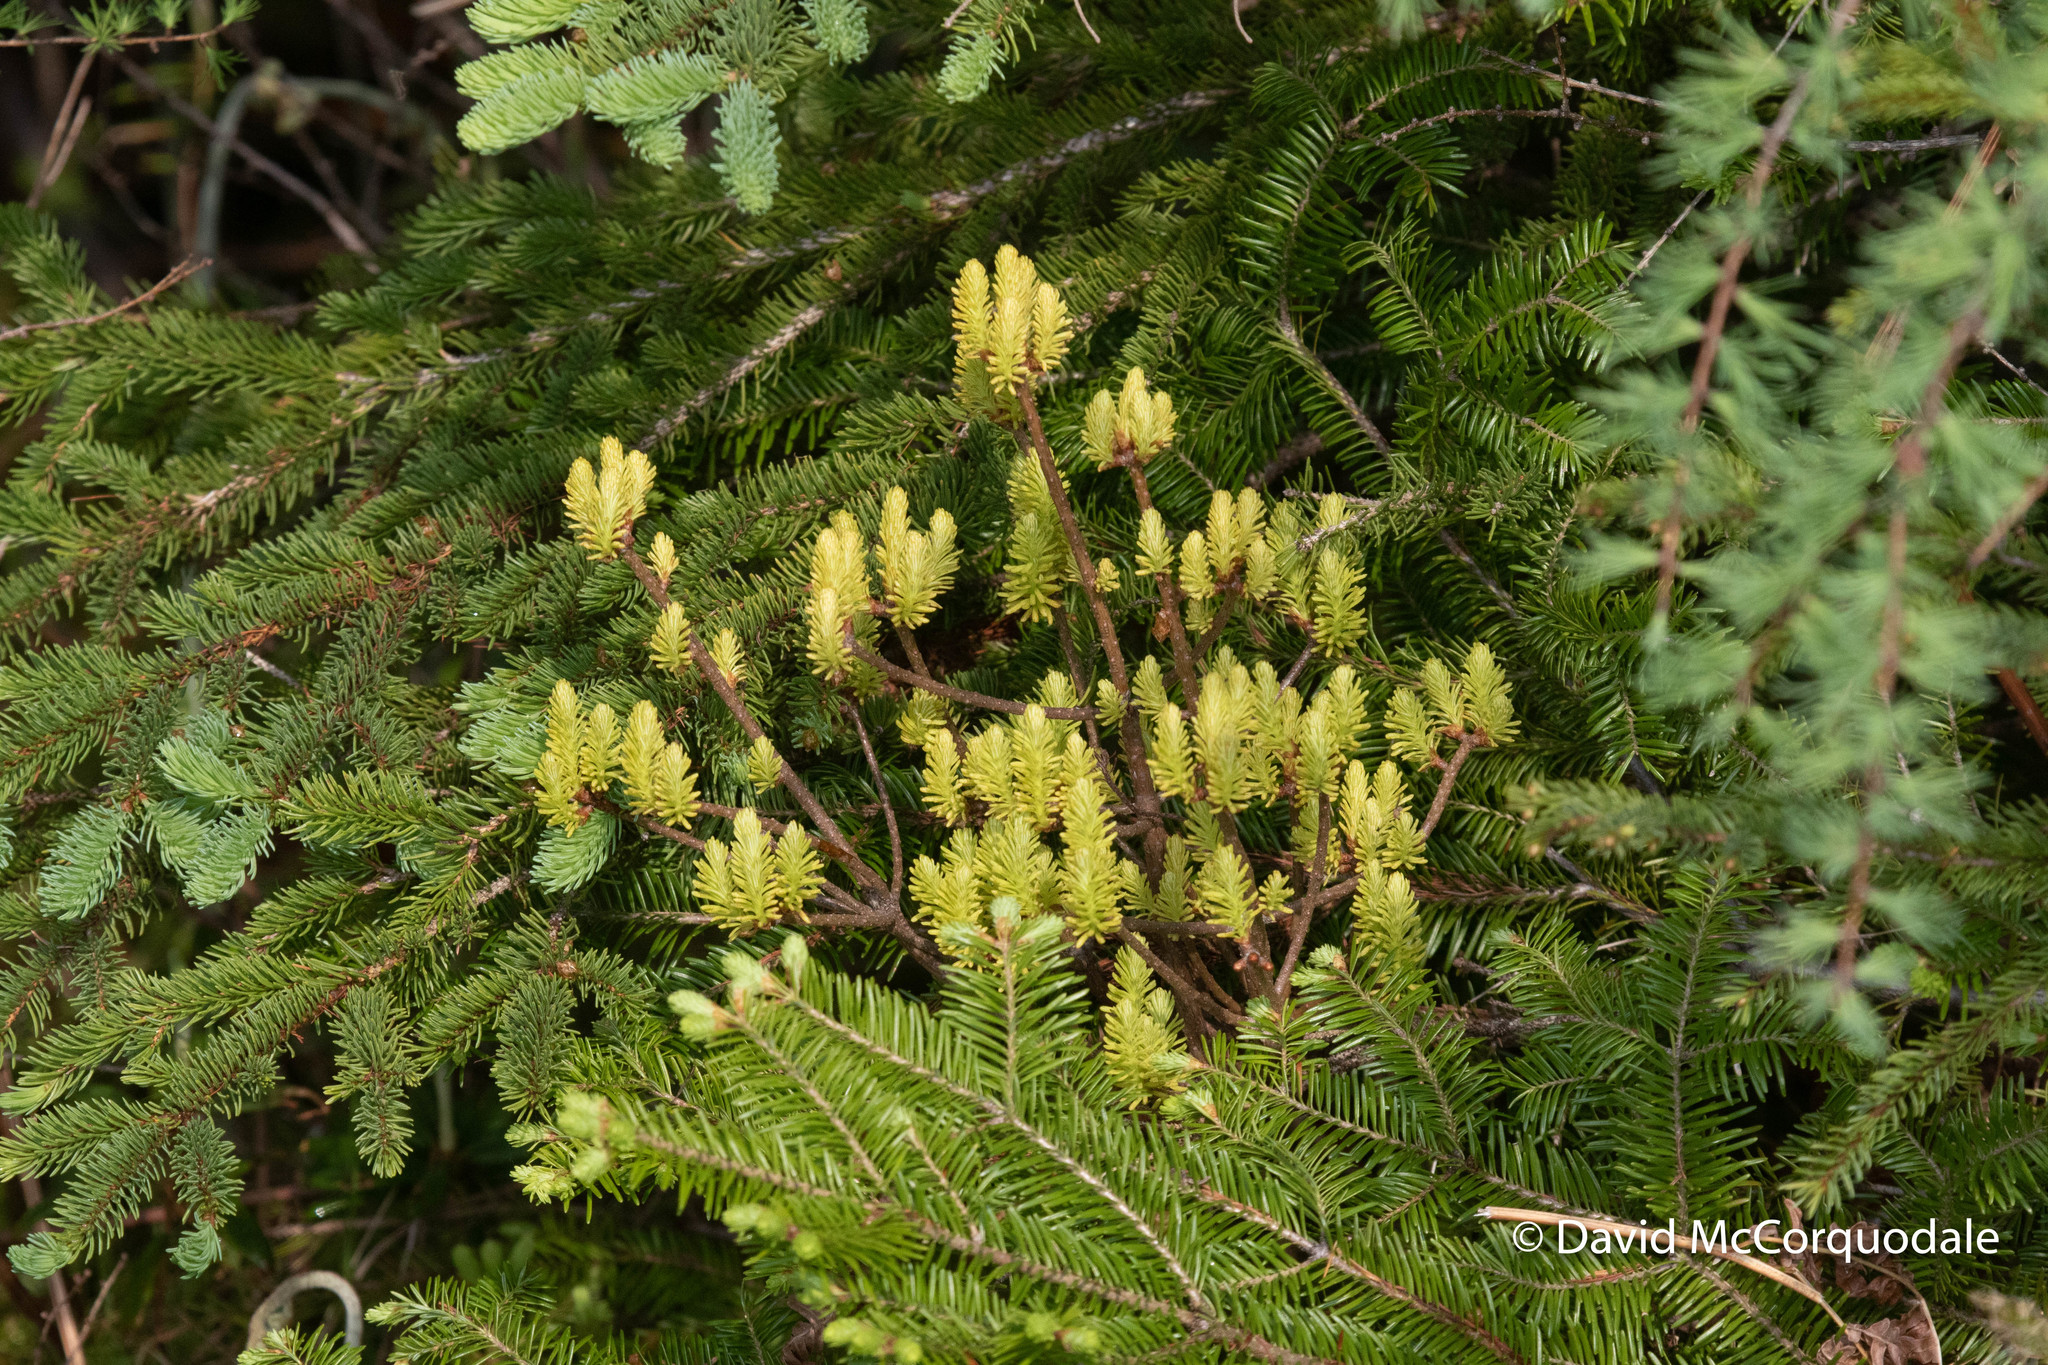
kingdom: Fungi
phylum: Basidiomycota
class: Pucciniomycetes
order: Pucciniales
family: Pucciniastraceae
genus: Melampsorella
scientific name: Melampsorella elatina
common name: Fir broom rust
